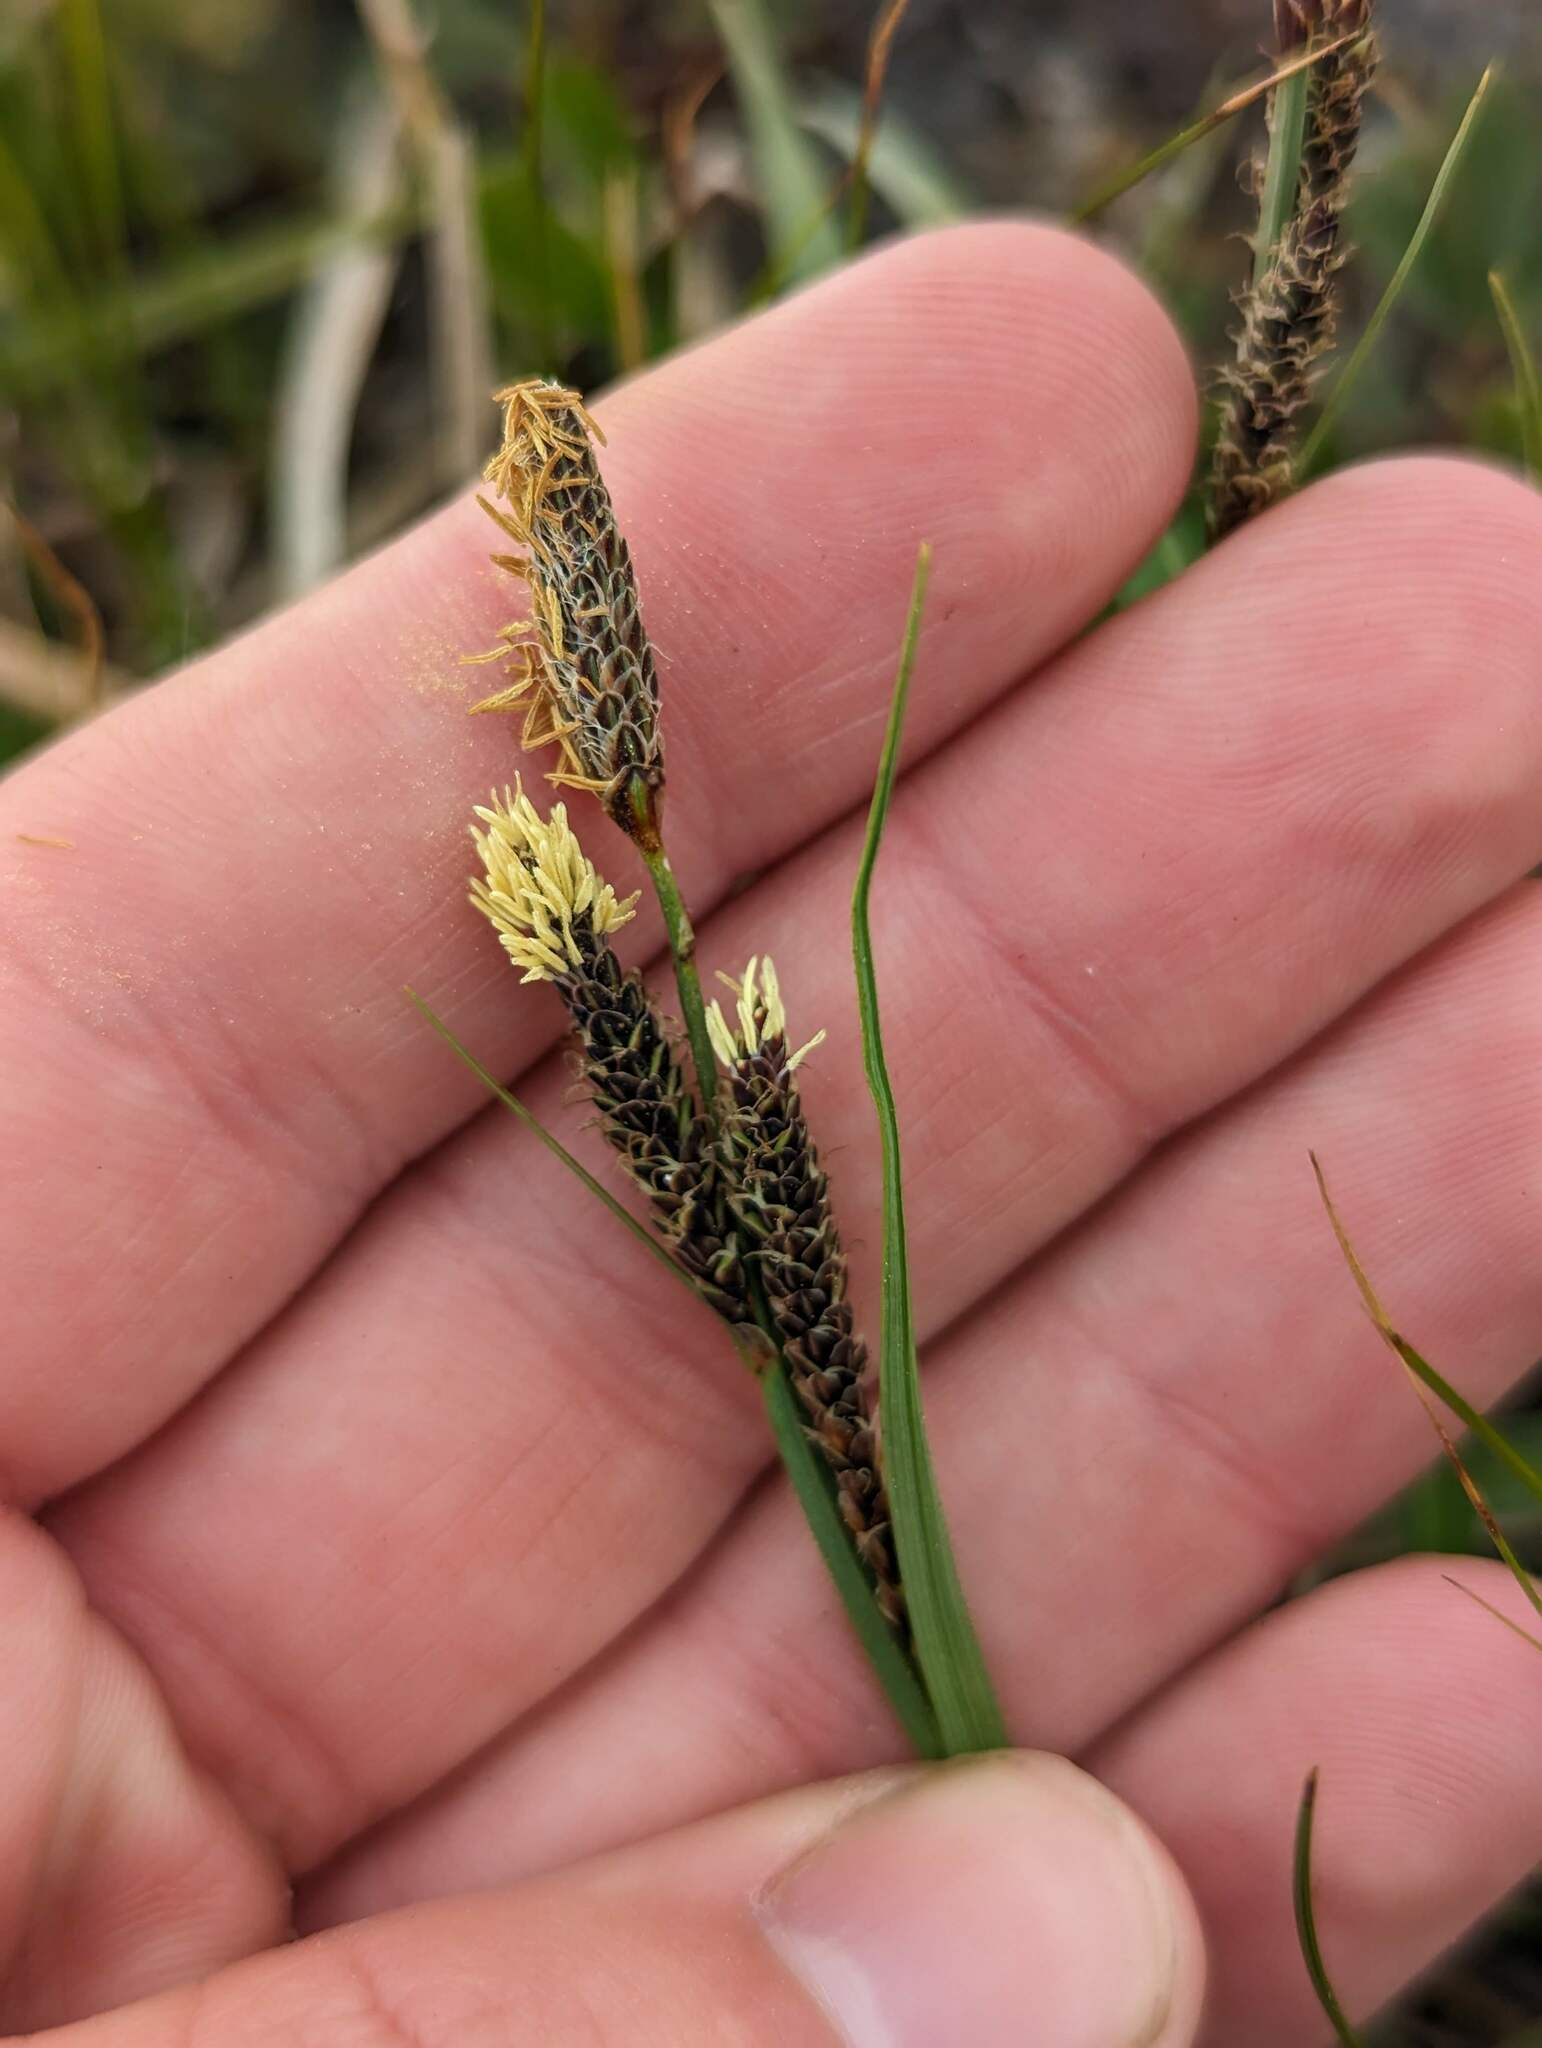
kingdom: Plantae
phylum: Tracheophyta
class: Liliopsida
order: Poales
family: Cyperaceae
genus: Carex
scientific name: Carex bigelowii
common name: Stiff sedge
